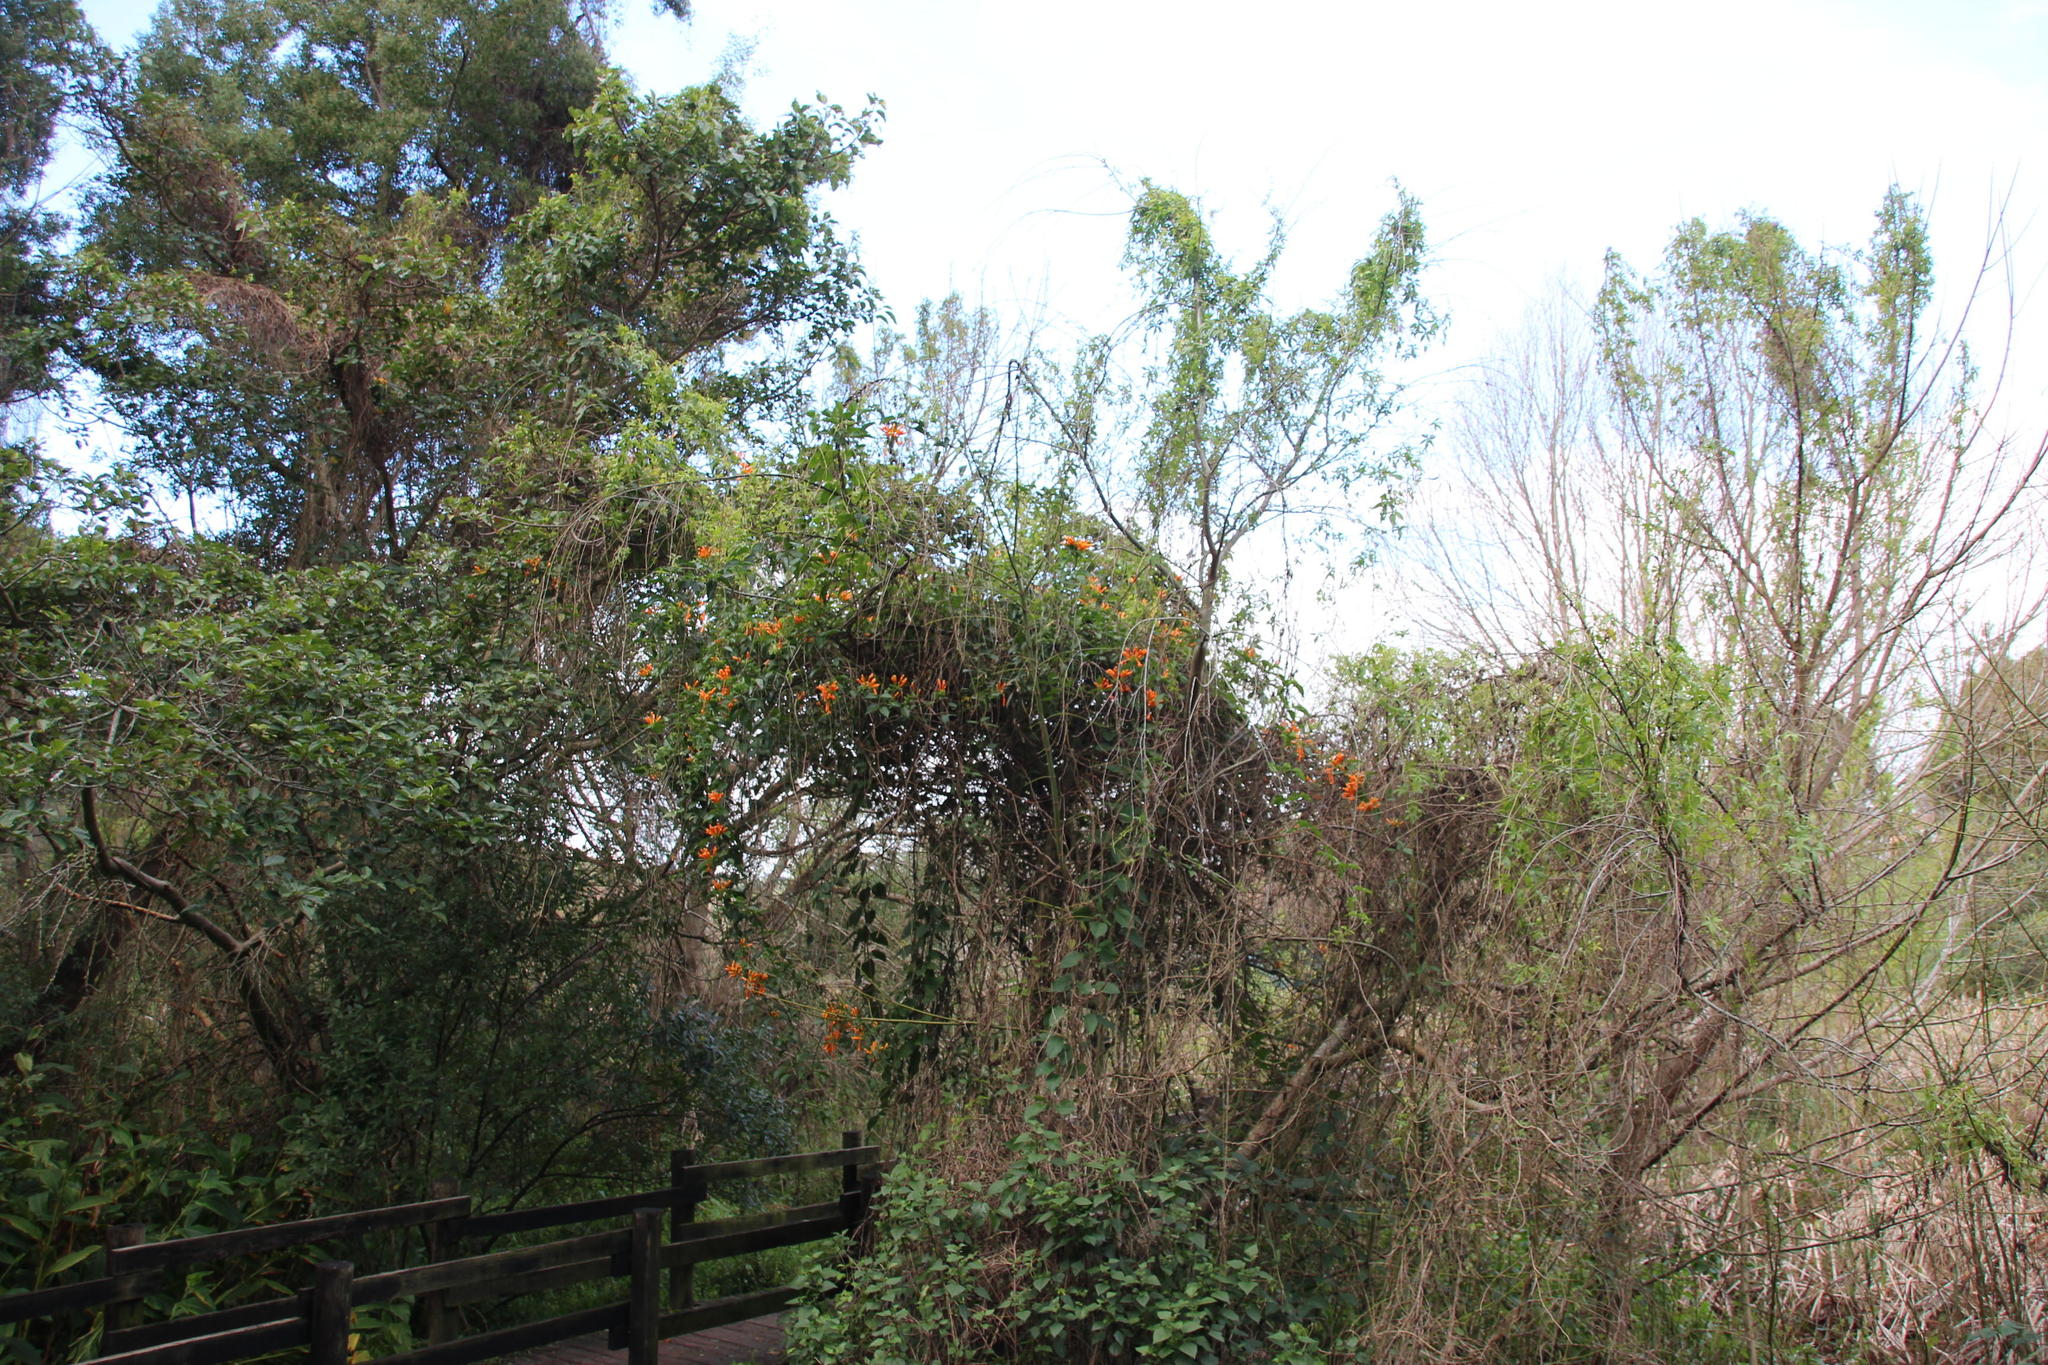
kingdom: Plantae
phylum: Tracheophyta
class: Magnoliopsida
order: Lamiales
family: Bignoniaceae
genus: Pyrostegia
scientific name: Pyrostegia venusta
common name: Flamevine
